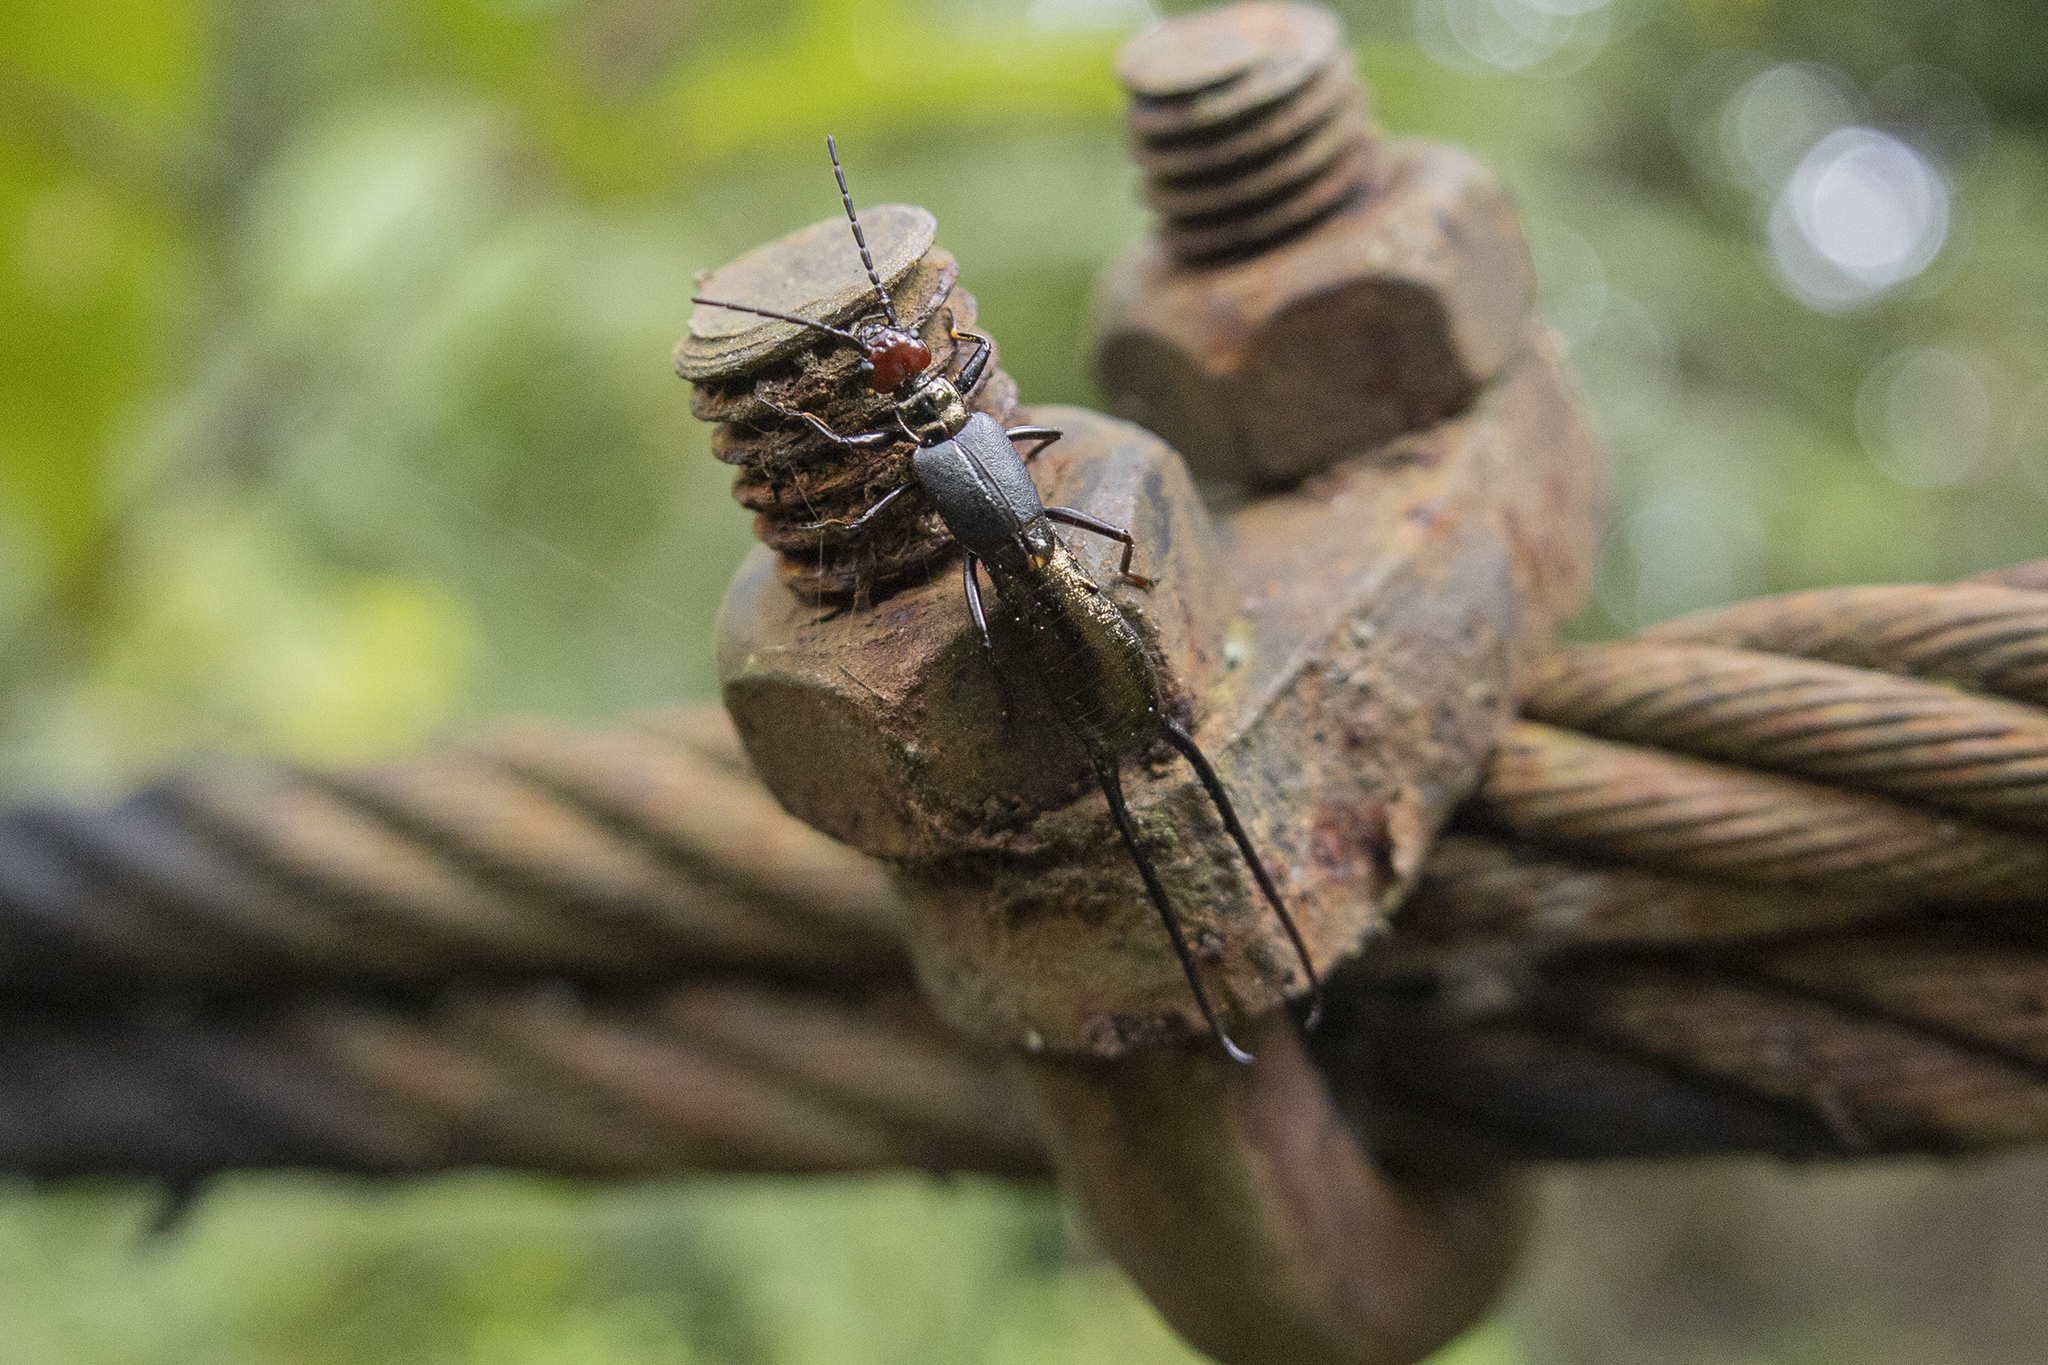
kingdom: Animalia
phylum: Arthropoda
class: Insecta
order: Dermaptera
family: Forficulidae
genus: Eudohrnia
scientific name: Eudohrnia metallica
